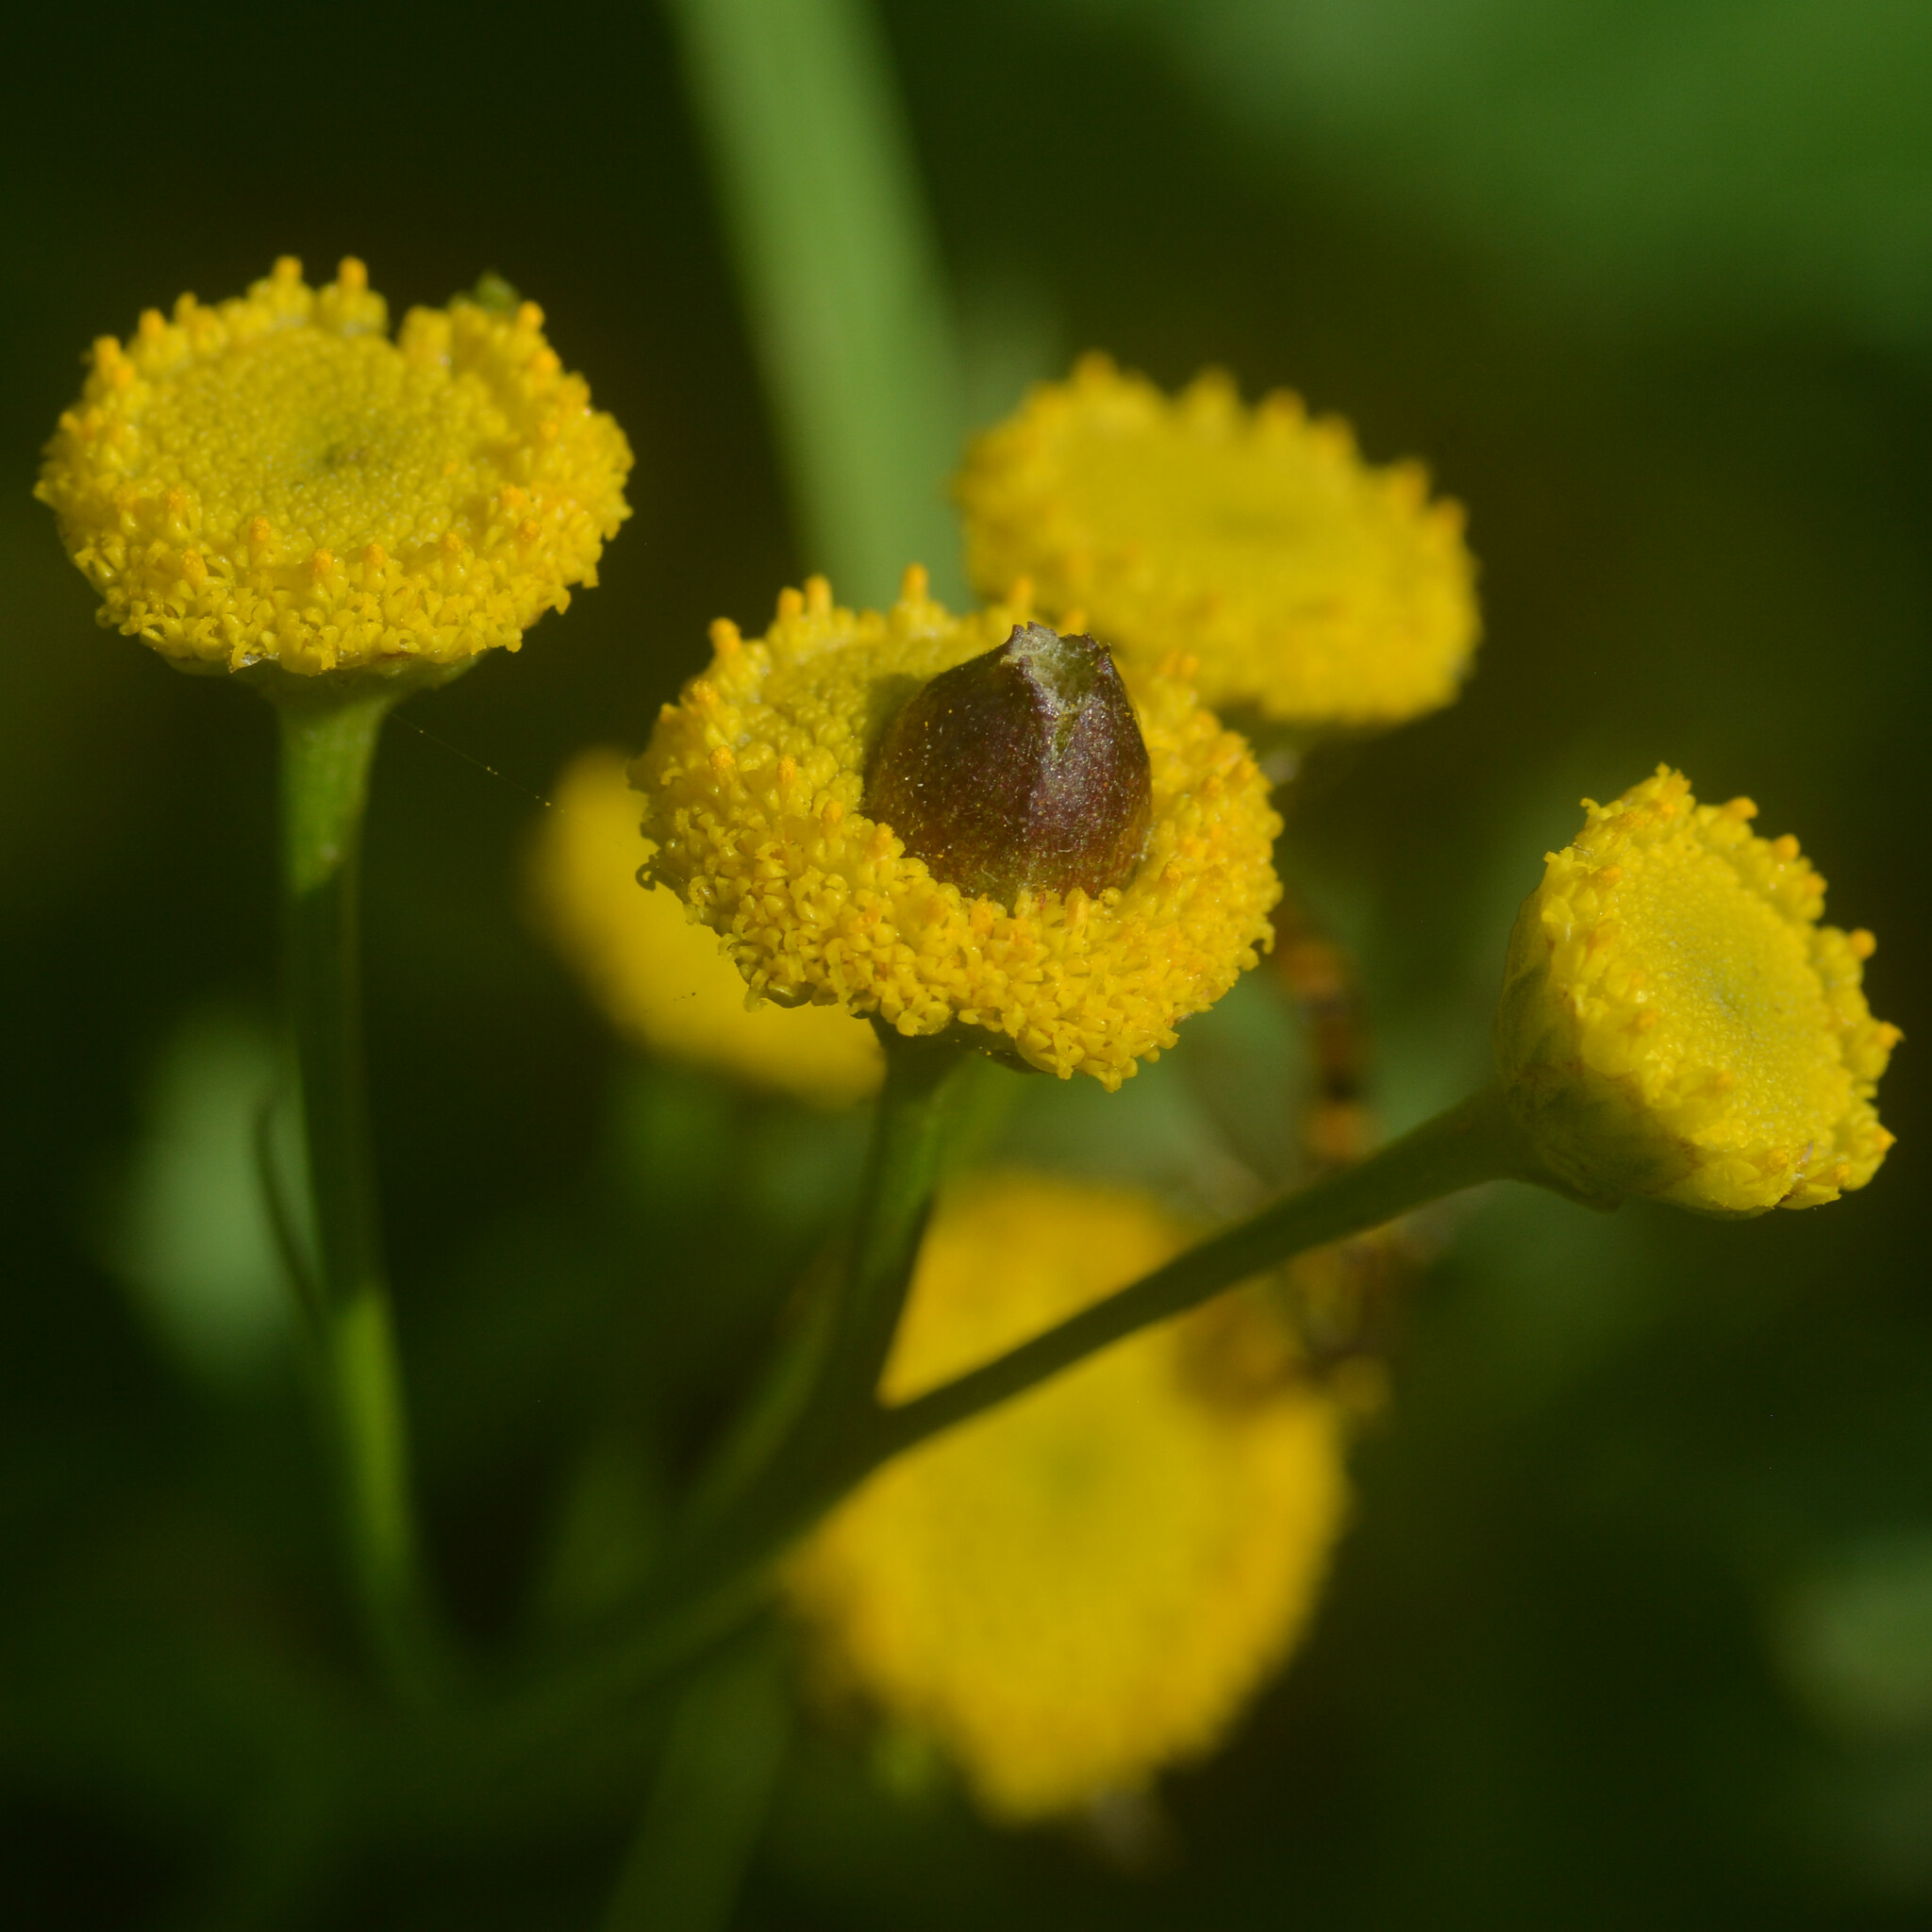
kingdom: Animalia
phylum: Arthropoda
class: Insecta
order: Diptera
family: Cecidomyiidae
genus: Rhopalomyia
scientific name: Rhopalomyia tanaceticolus
